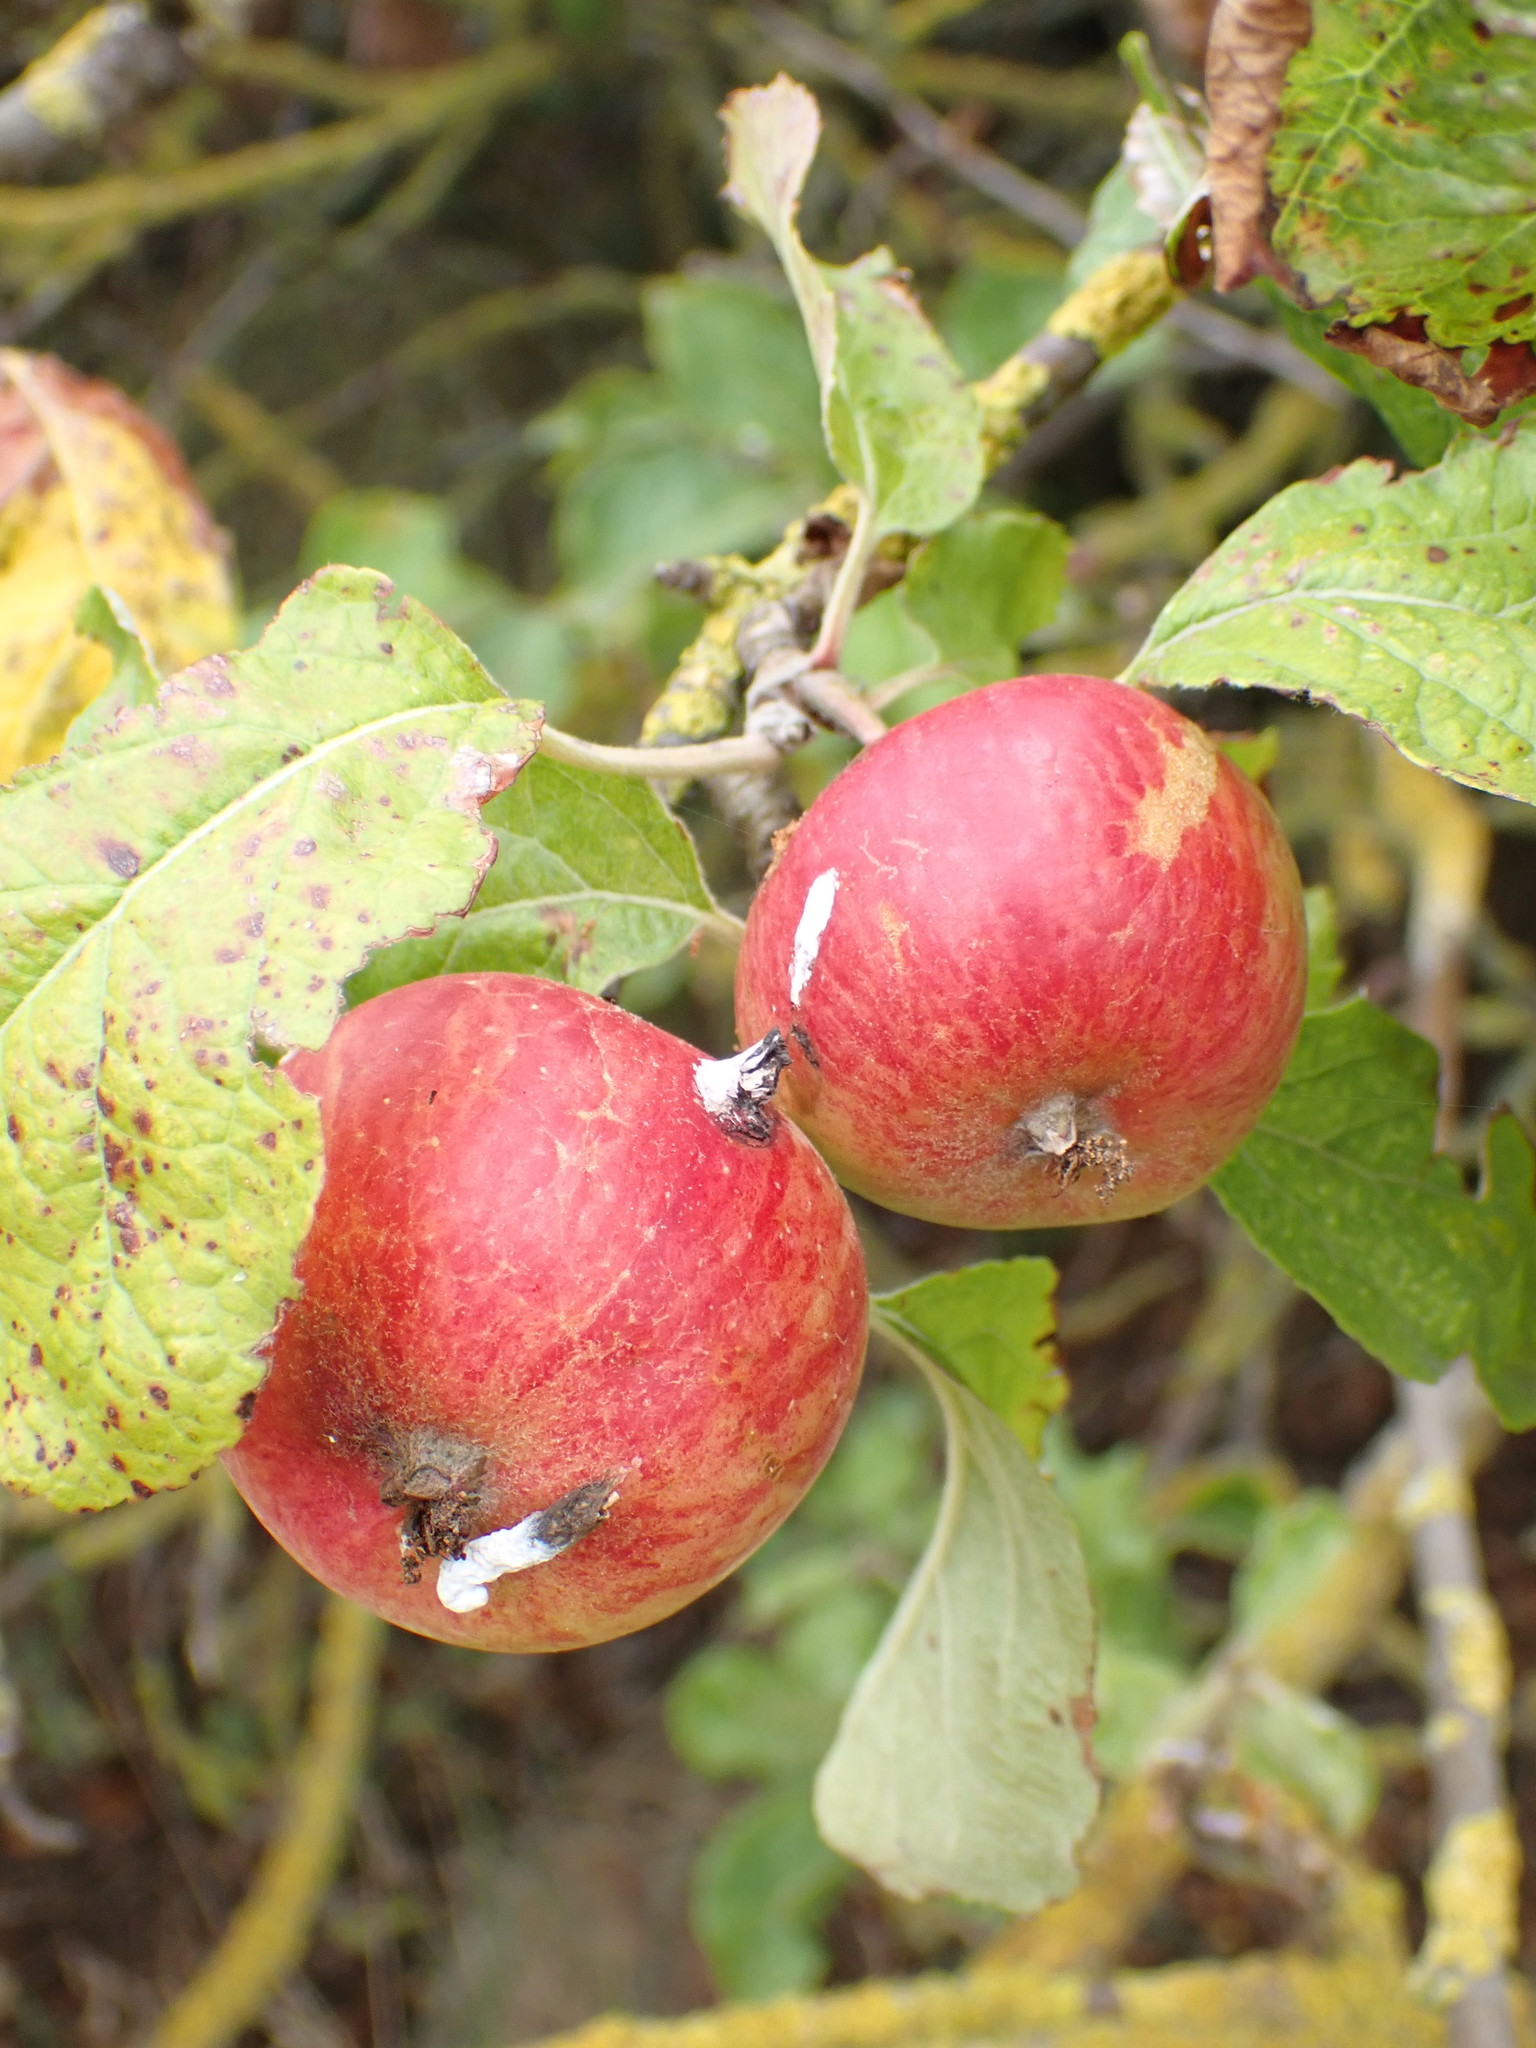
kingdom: Plantae
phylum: Tracheophyta
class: Magnoliopsida
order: Rosales
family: Rosaceae
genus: Malus
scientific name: Malus domestica
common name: Apple
